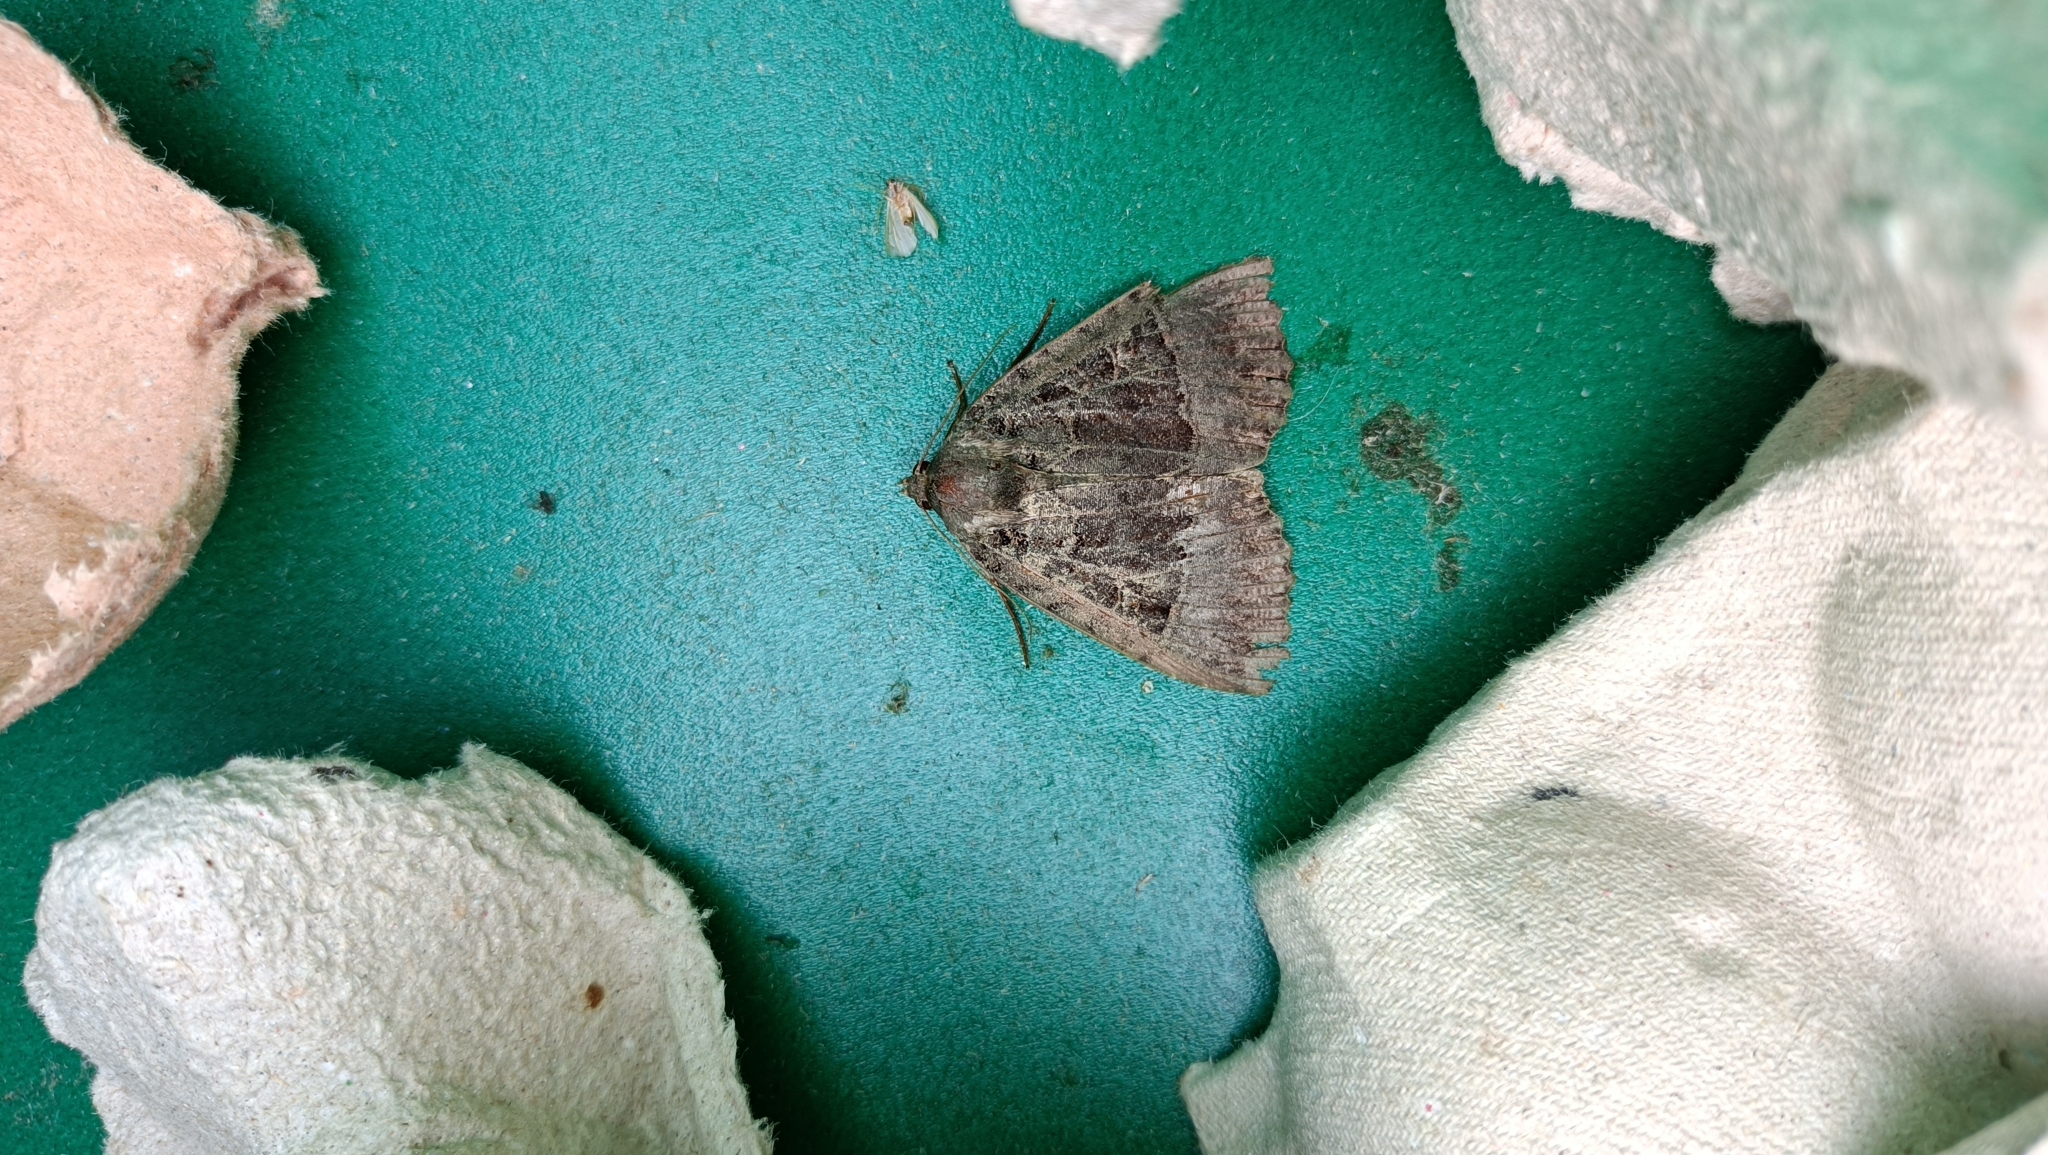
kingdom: Animalia
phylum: Arthropoda
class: Insecta
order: Lepidoptera
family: Noctuidae
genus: Mormo
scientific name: Mormo maura
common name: Old lady
